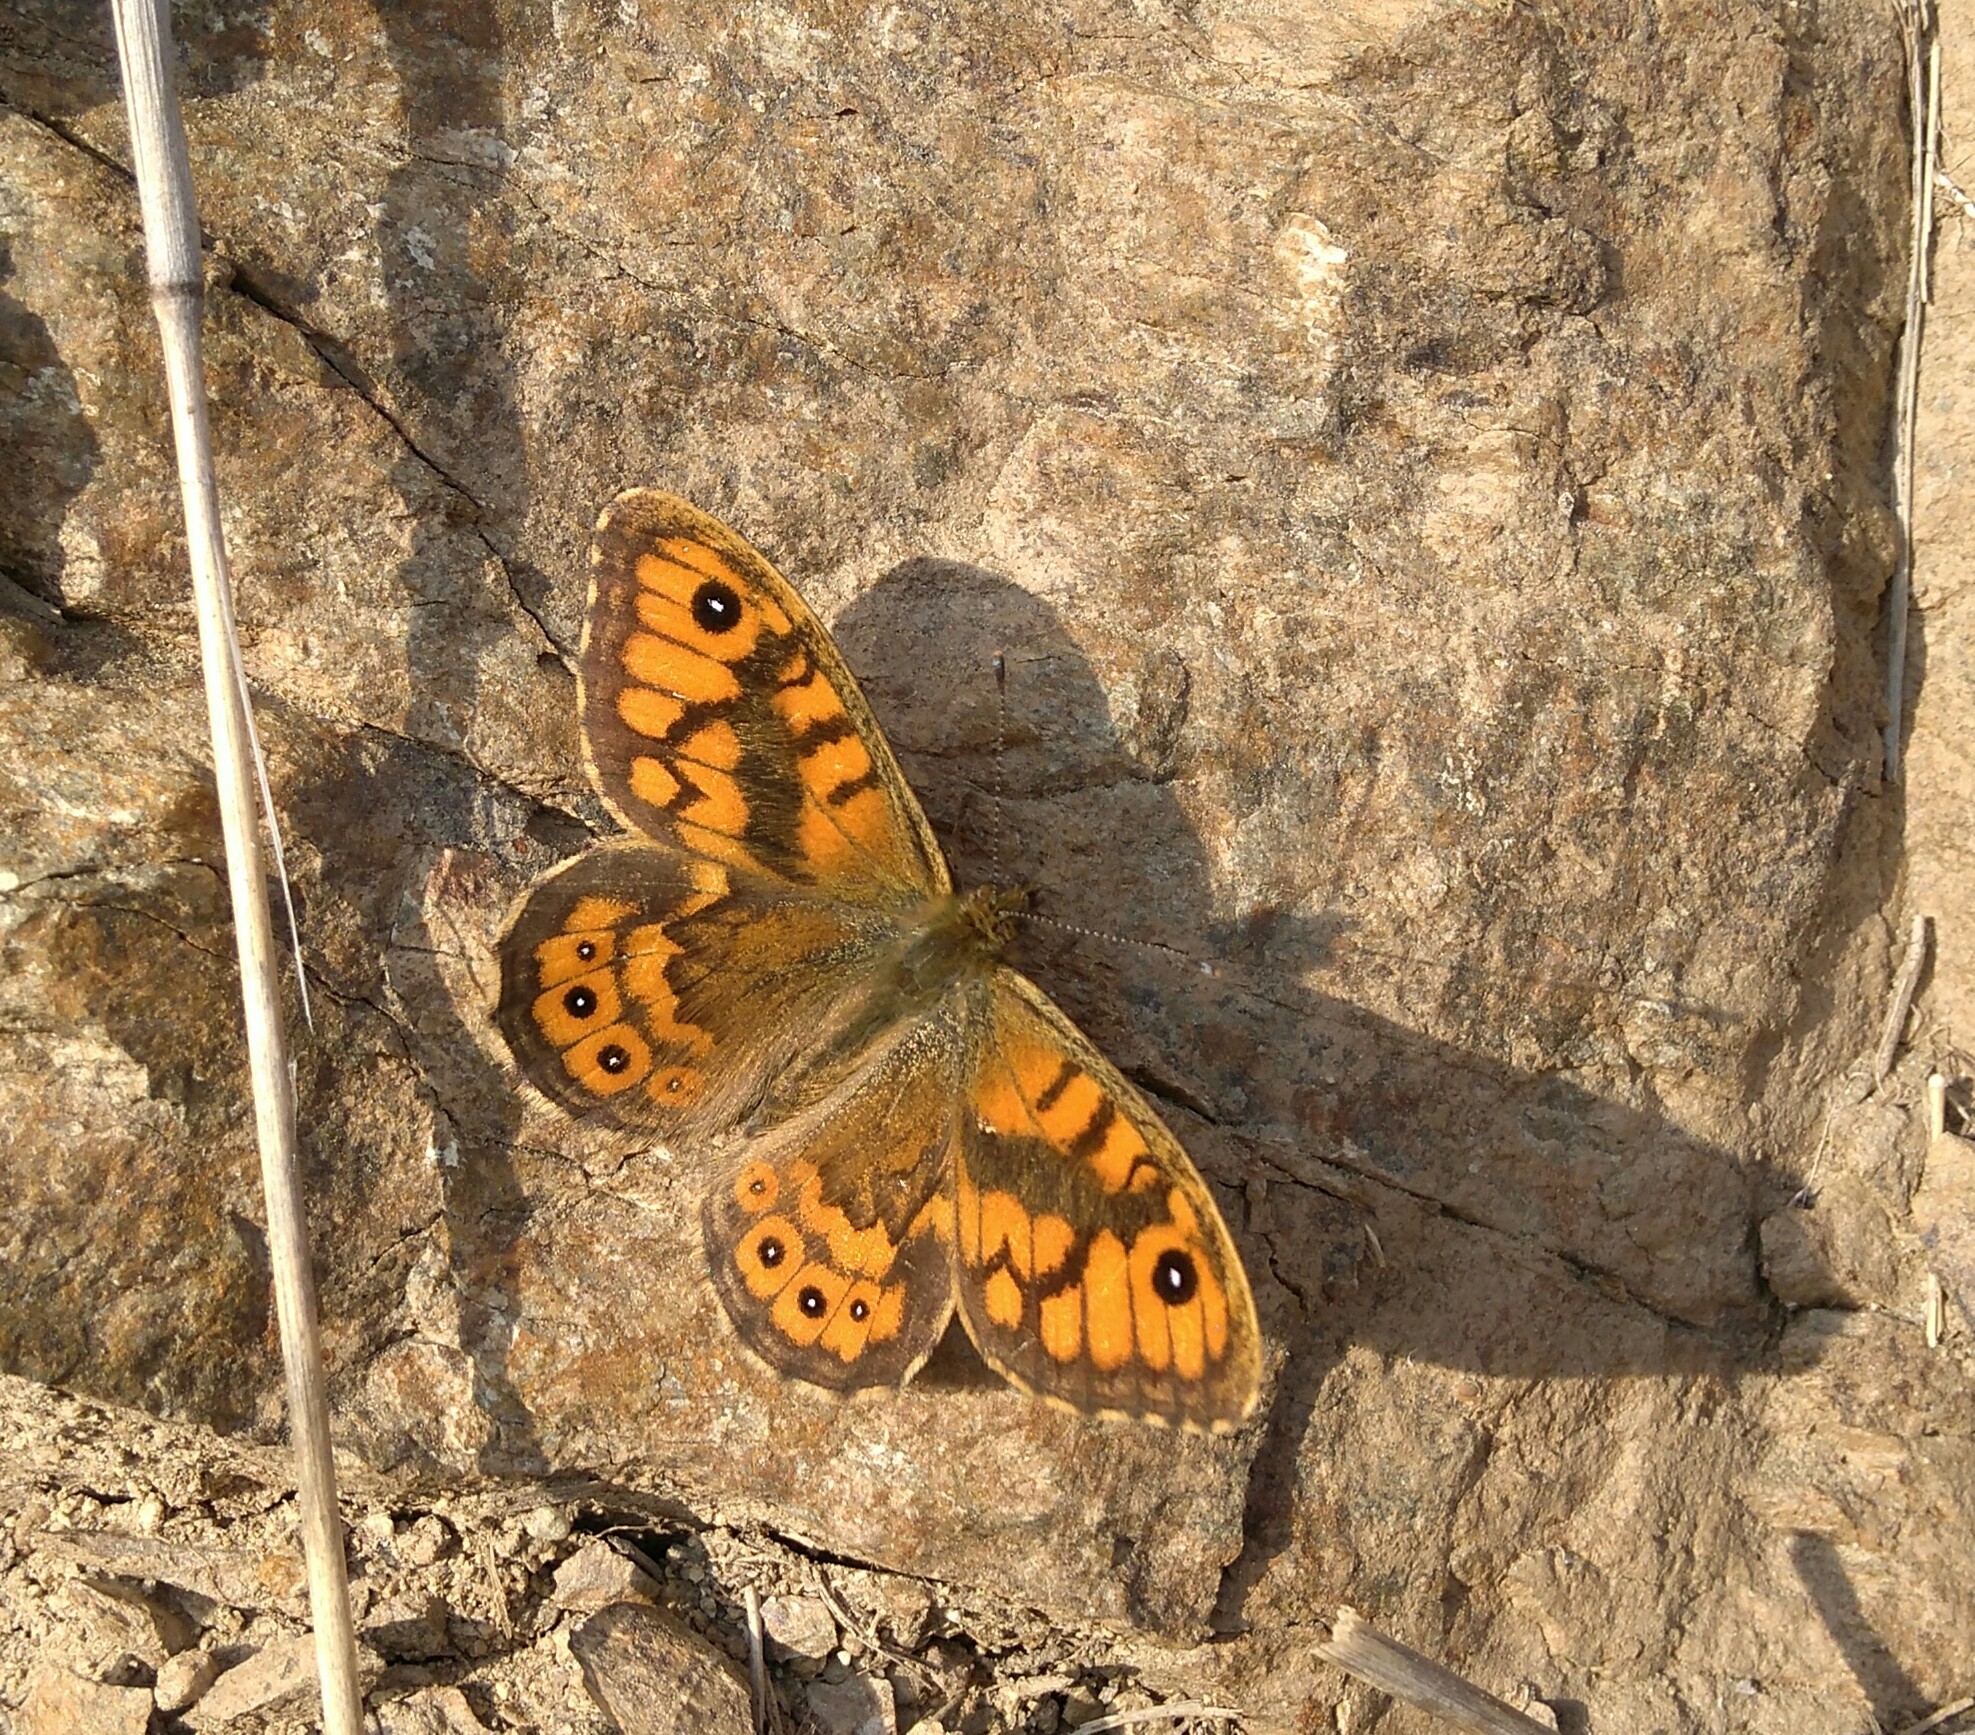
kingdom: Animalia
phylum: Arthropoda
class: Insecta
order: Lepidoptera
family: Nymphalidae
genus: Pararge
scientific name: Pararge Lasiommata megera
